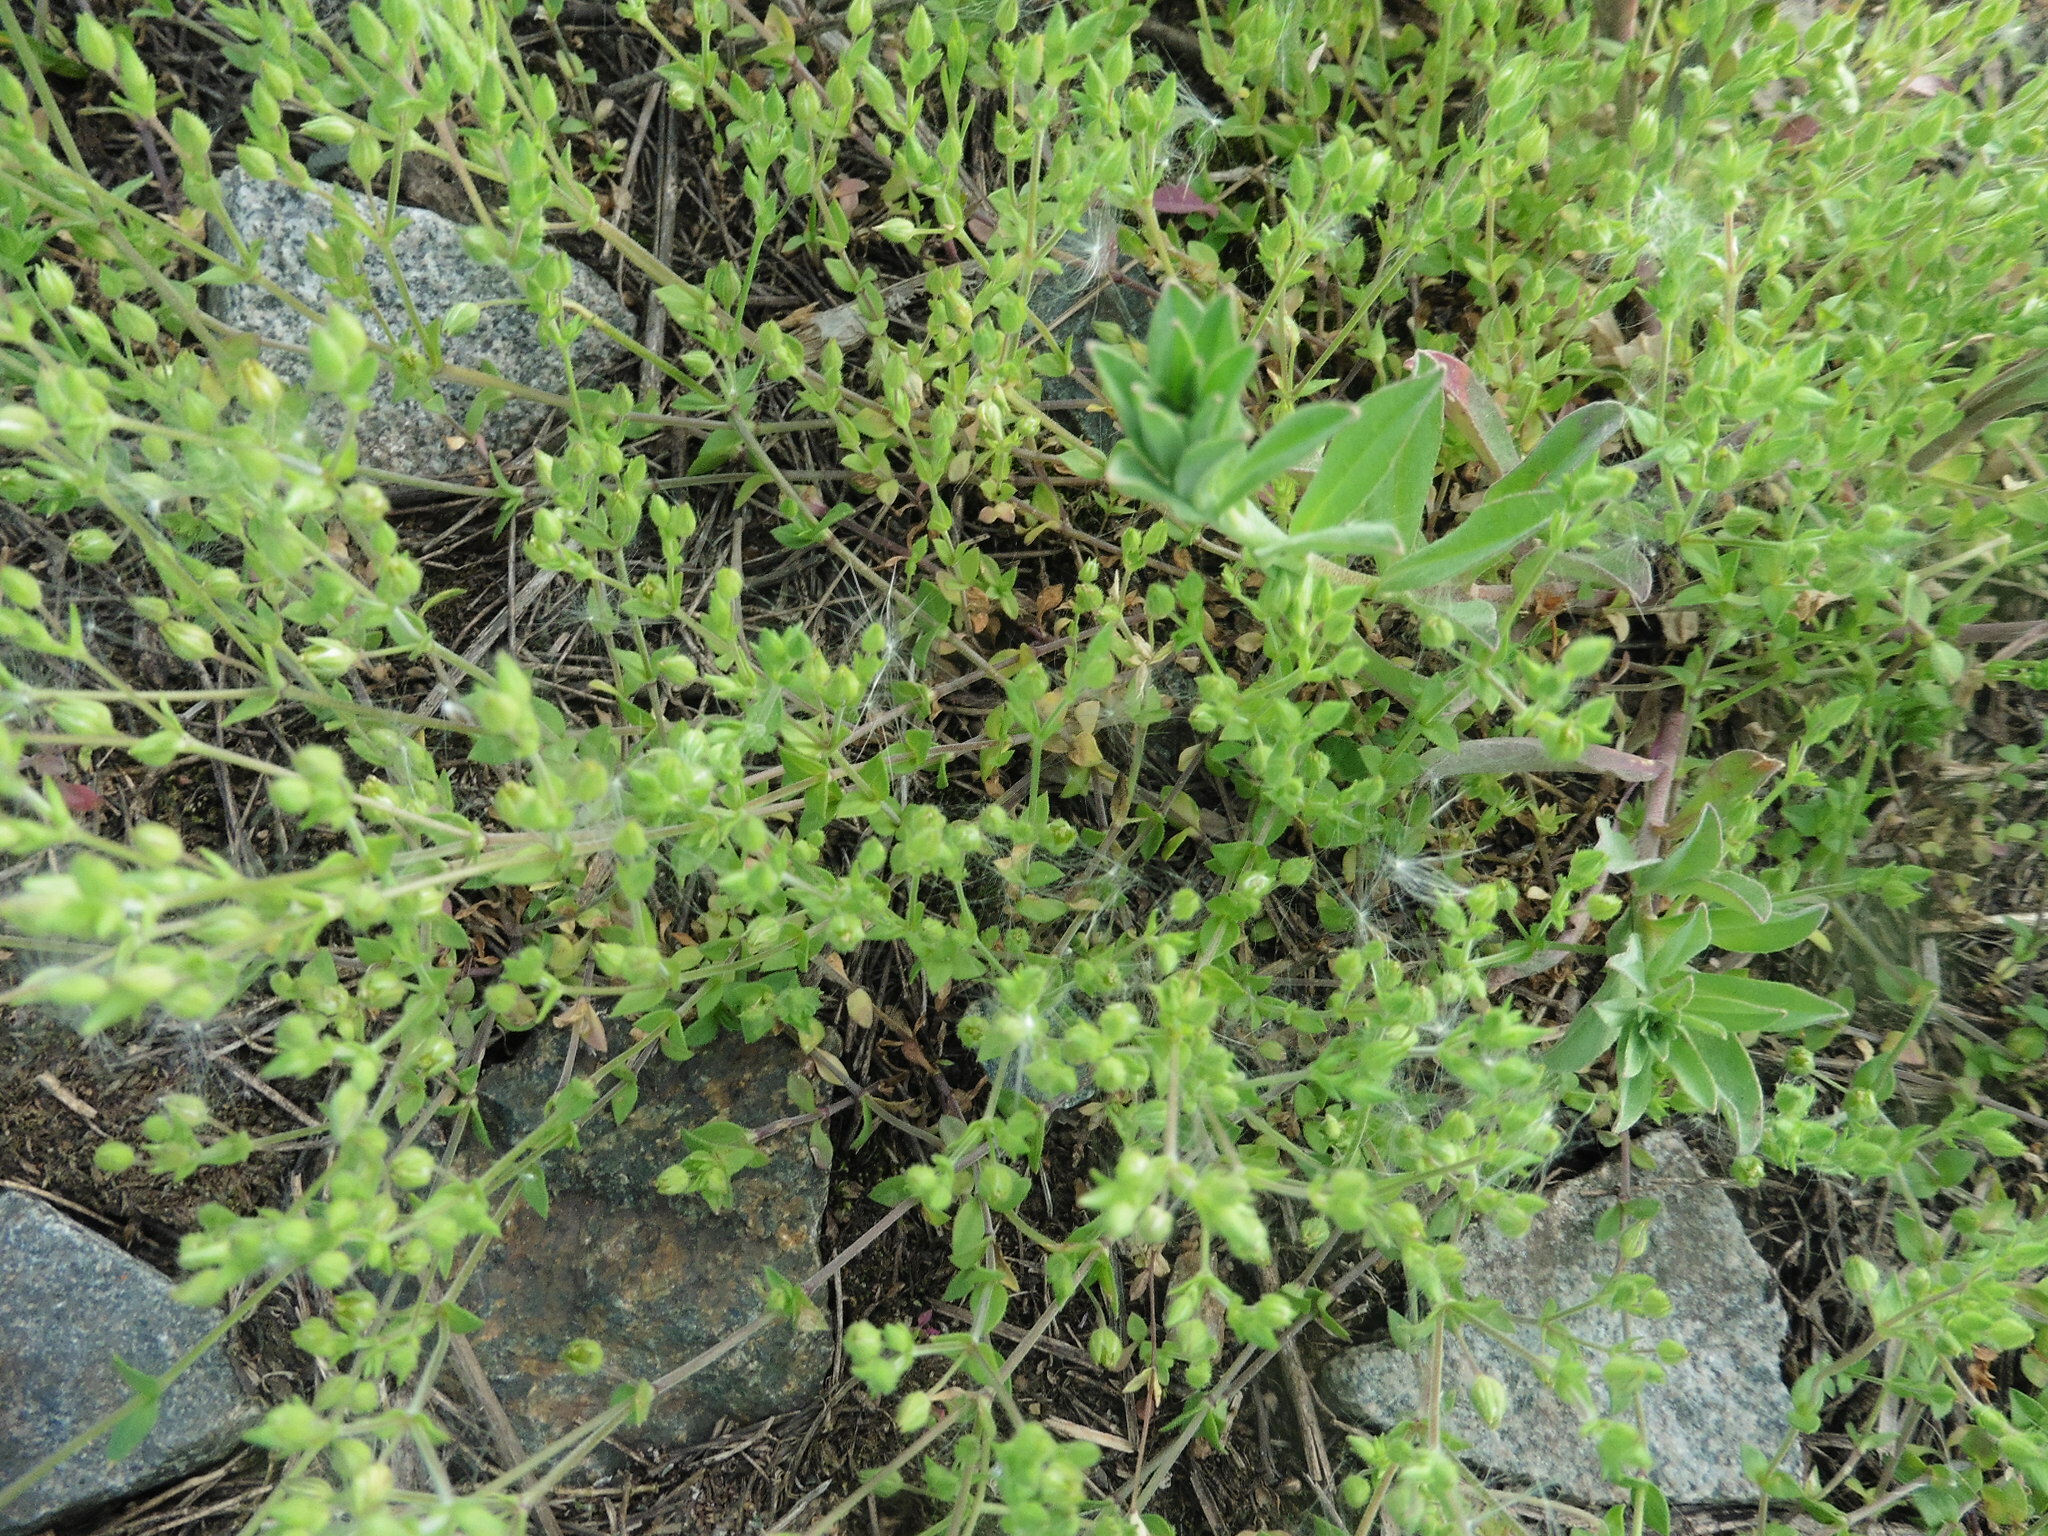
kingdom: Plantae
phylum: Tracheophyta
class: Magnoliopsida
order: Caryophyllales
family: Caryophyllaceae
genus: Arenaria
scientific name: Arenaria serpyllifolia
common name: Thyme-leaved sandwort
